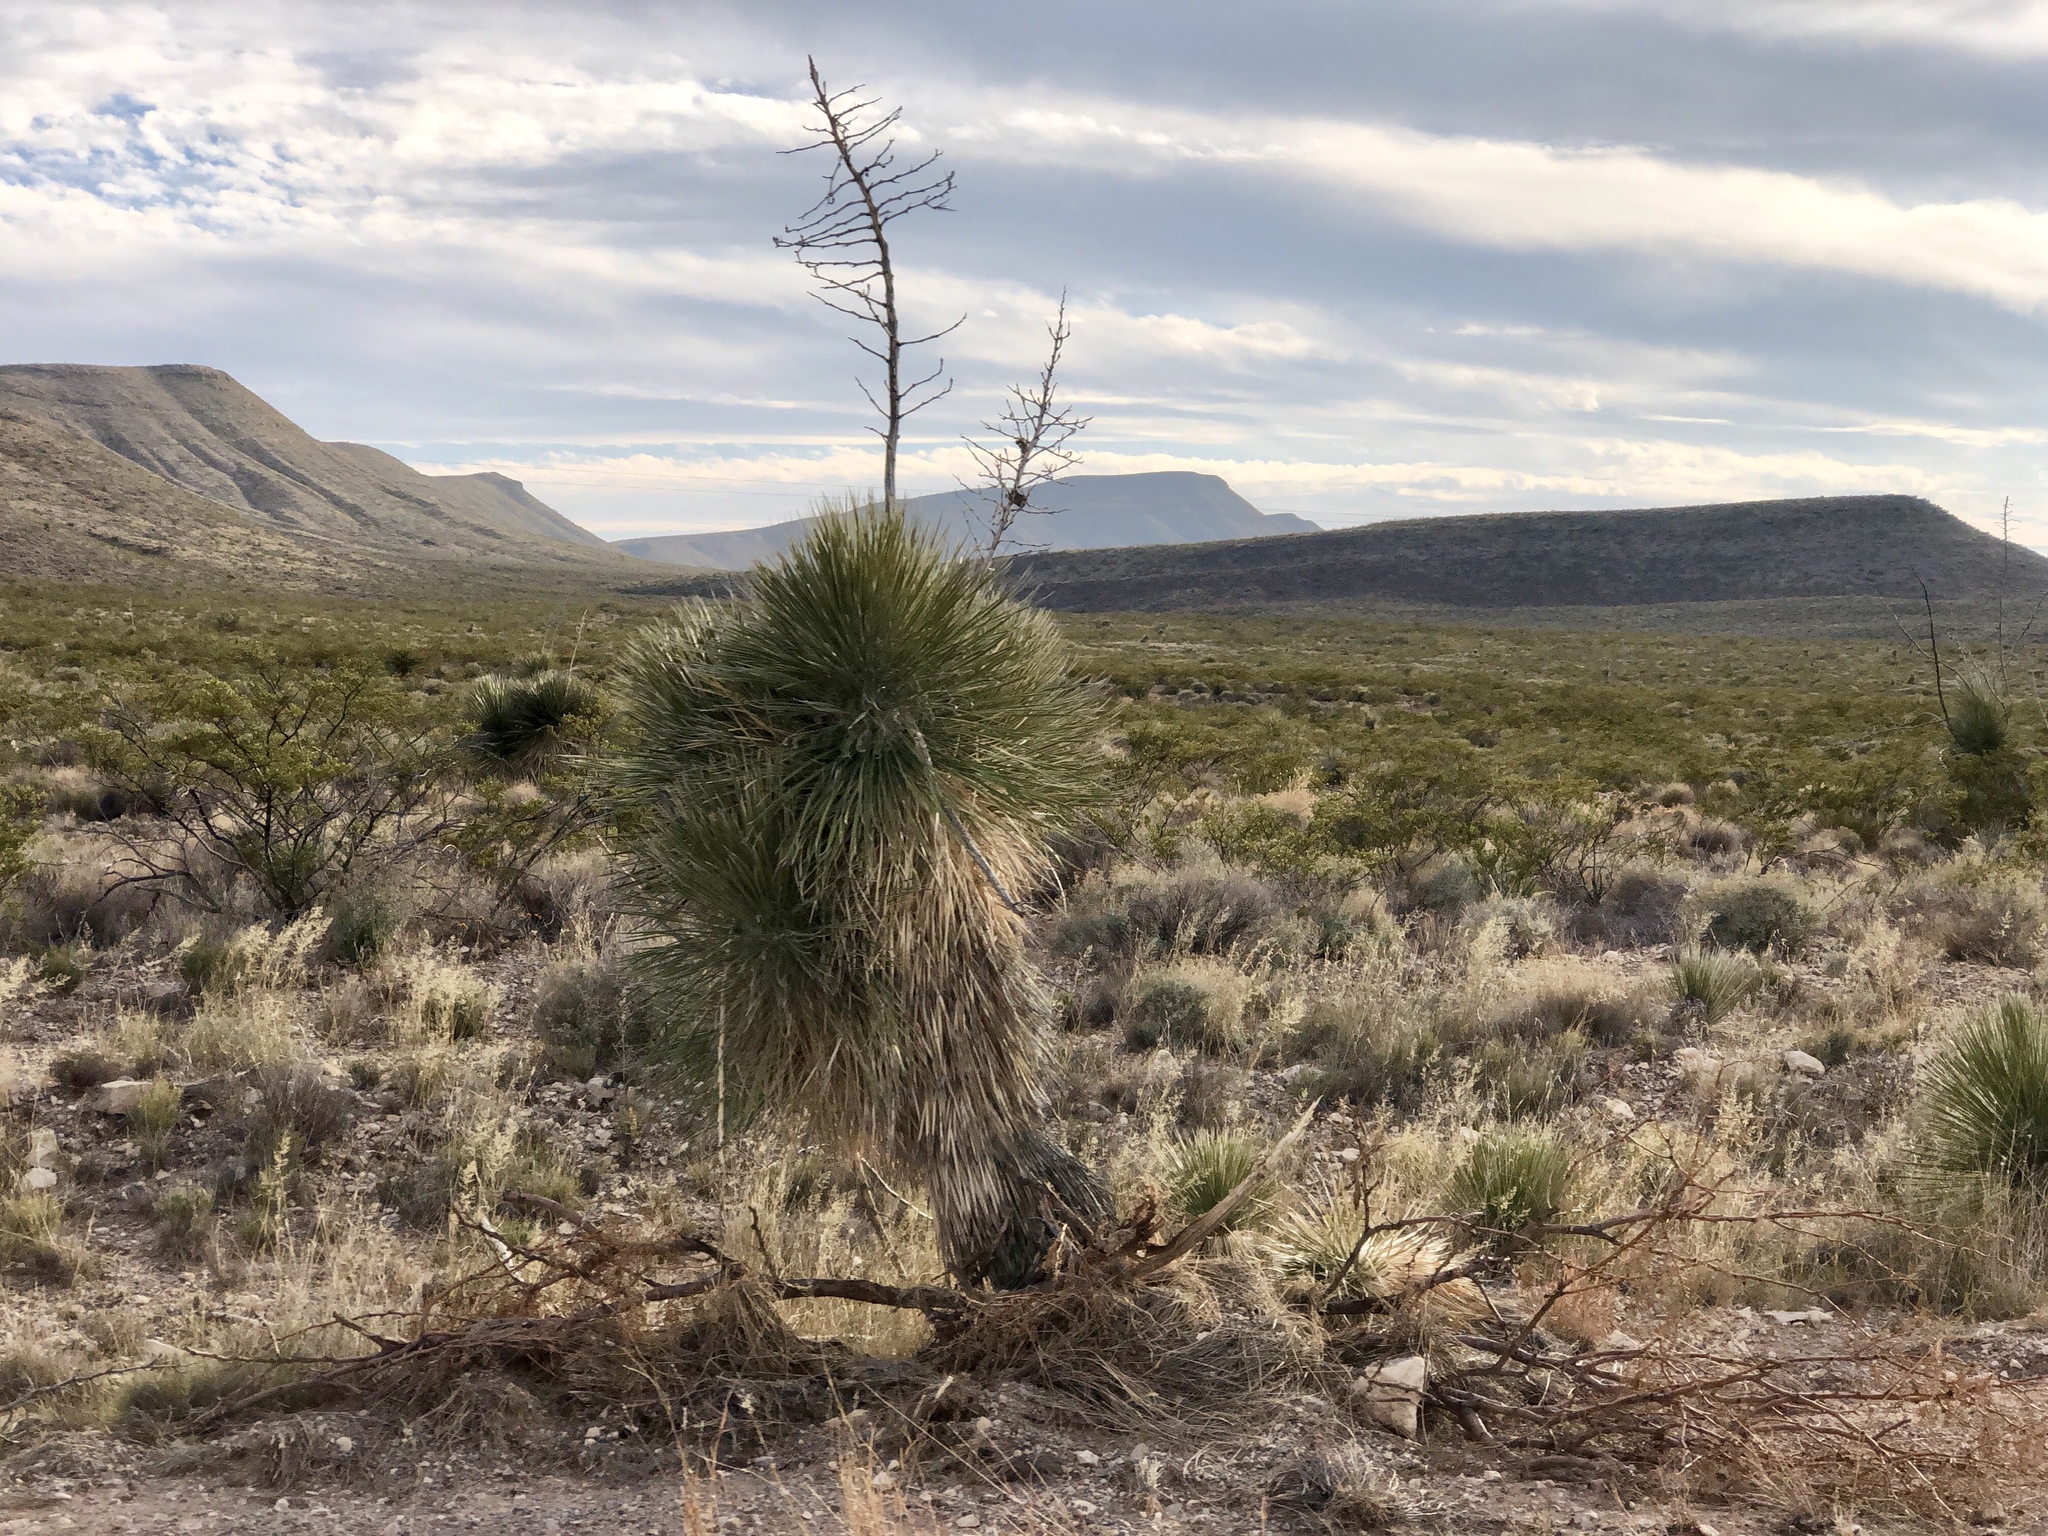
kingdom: Plantae
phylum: Tracheophyta
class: Liliopsida
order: Asparagales
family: Asparagaceae
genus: Yucca
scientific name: Yucca elata
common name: Palmella
